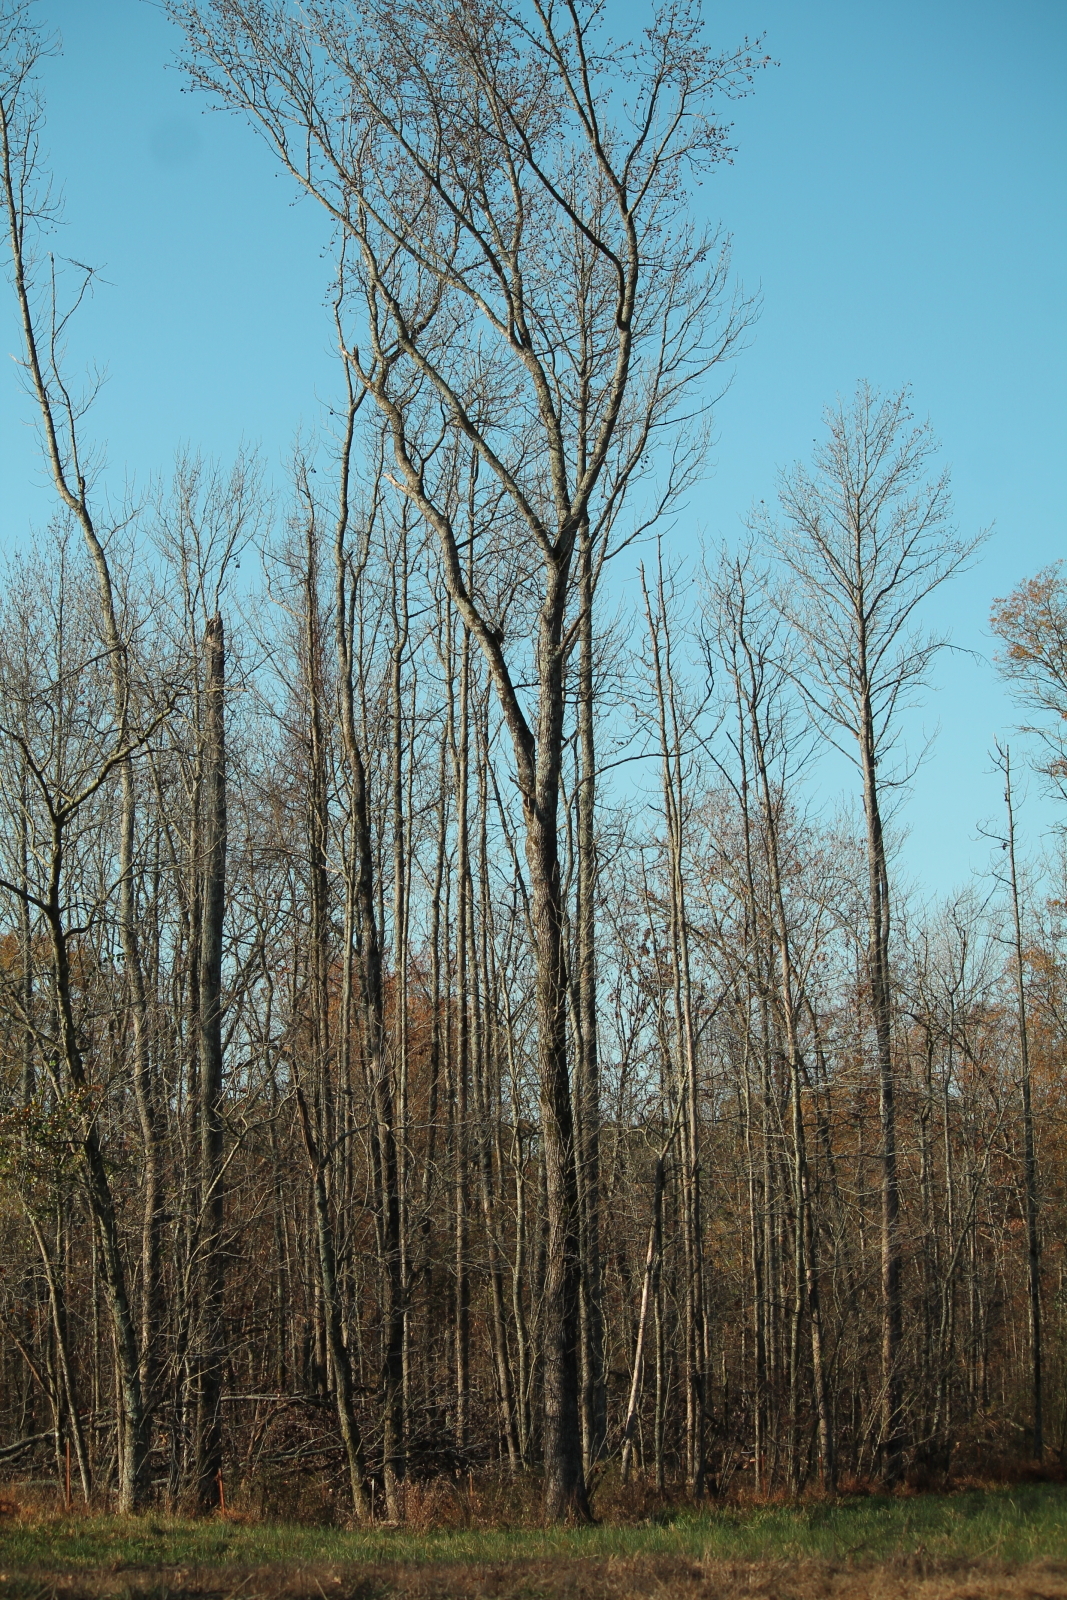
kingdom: Plantae
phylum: Tracheophyta
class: Magnoliopsida
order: Saxifragales
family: Altingiaceae
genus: Liquidambar
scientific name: Liquidambar styraciflua
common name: Sweet gum
